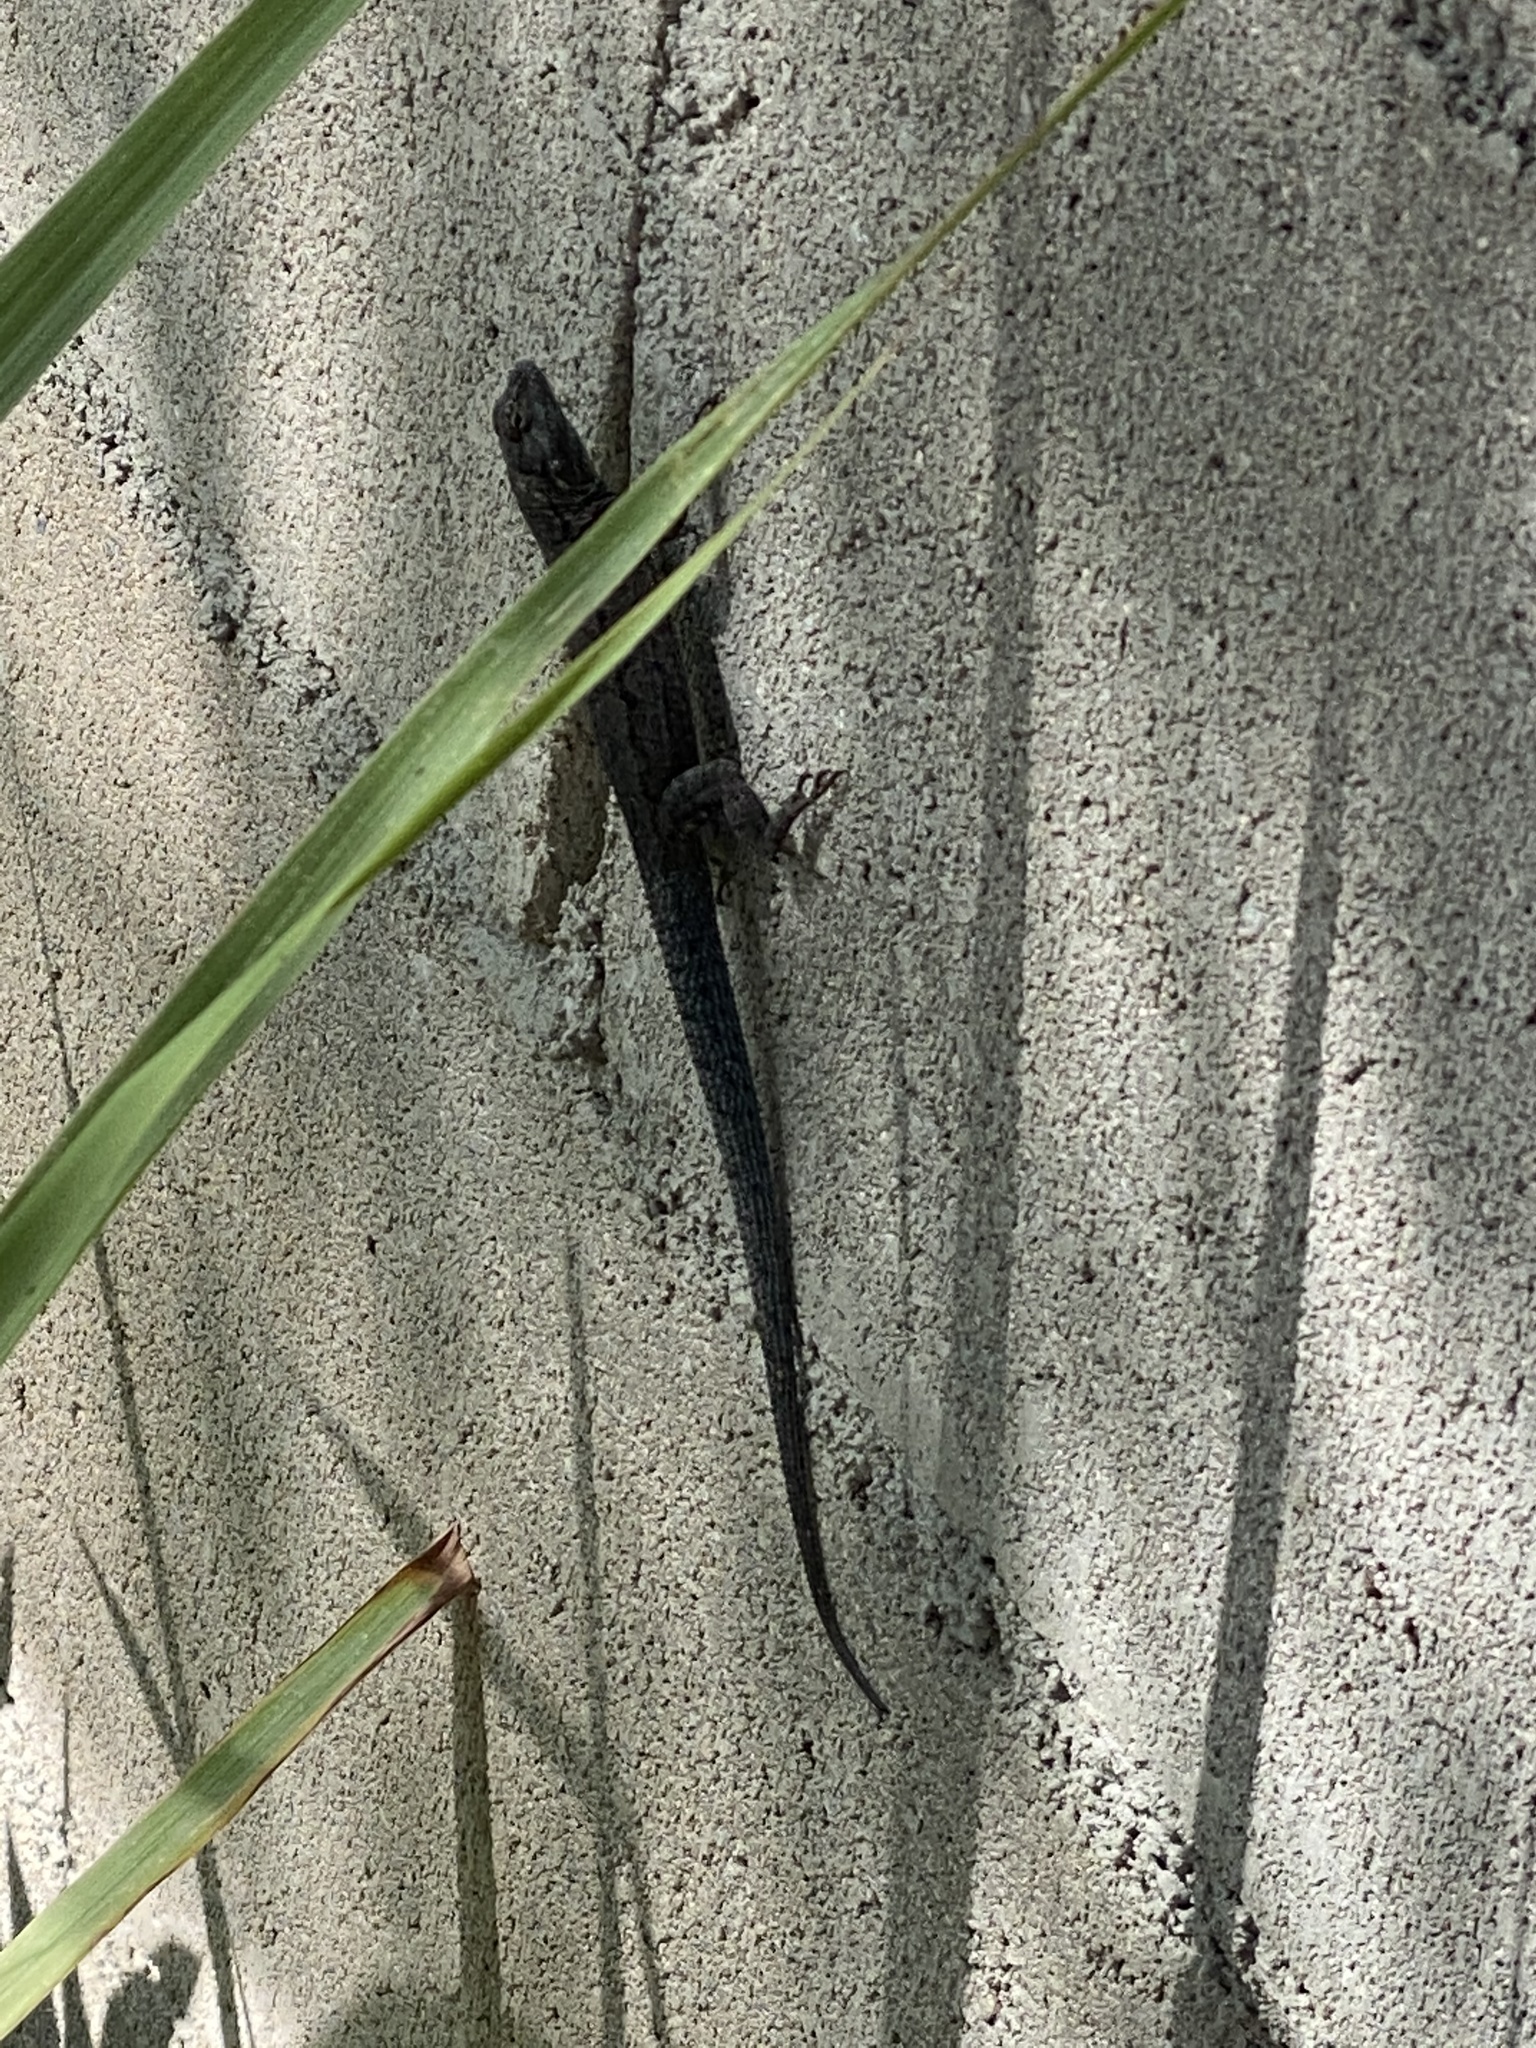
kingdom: Animalia
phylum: Chordata
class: Squamata
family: Phrynosomatidae
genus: Urosaurus
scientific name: Urosaurus ornatus
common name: Ornate tree lizard
